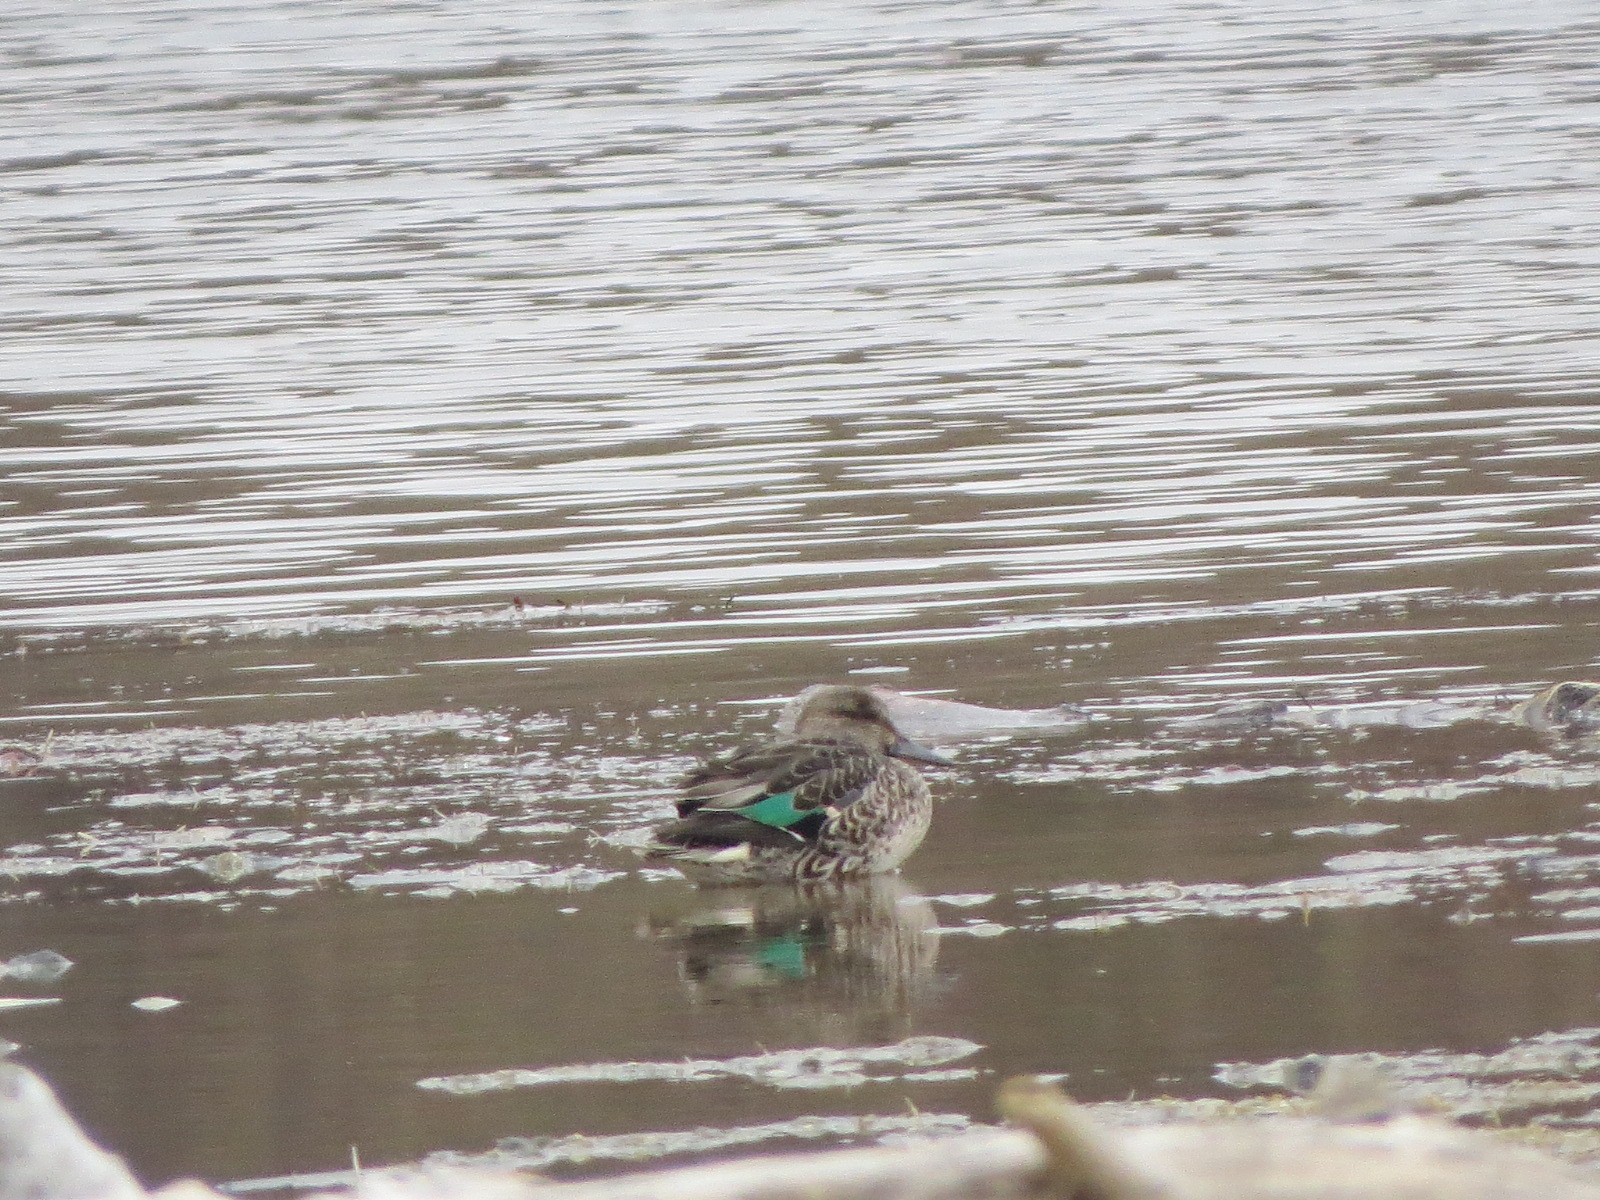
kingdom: Animalia
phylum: Chordata
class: Aves
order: Anseriformes
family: Anatidae
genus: Anas
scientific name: Anas crecca
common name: Eurasian teal
